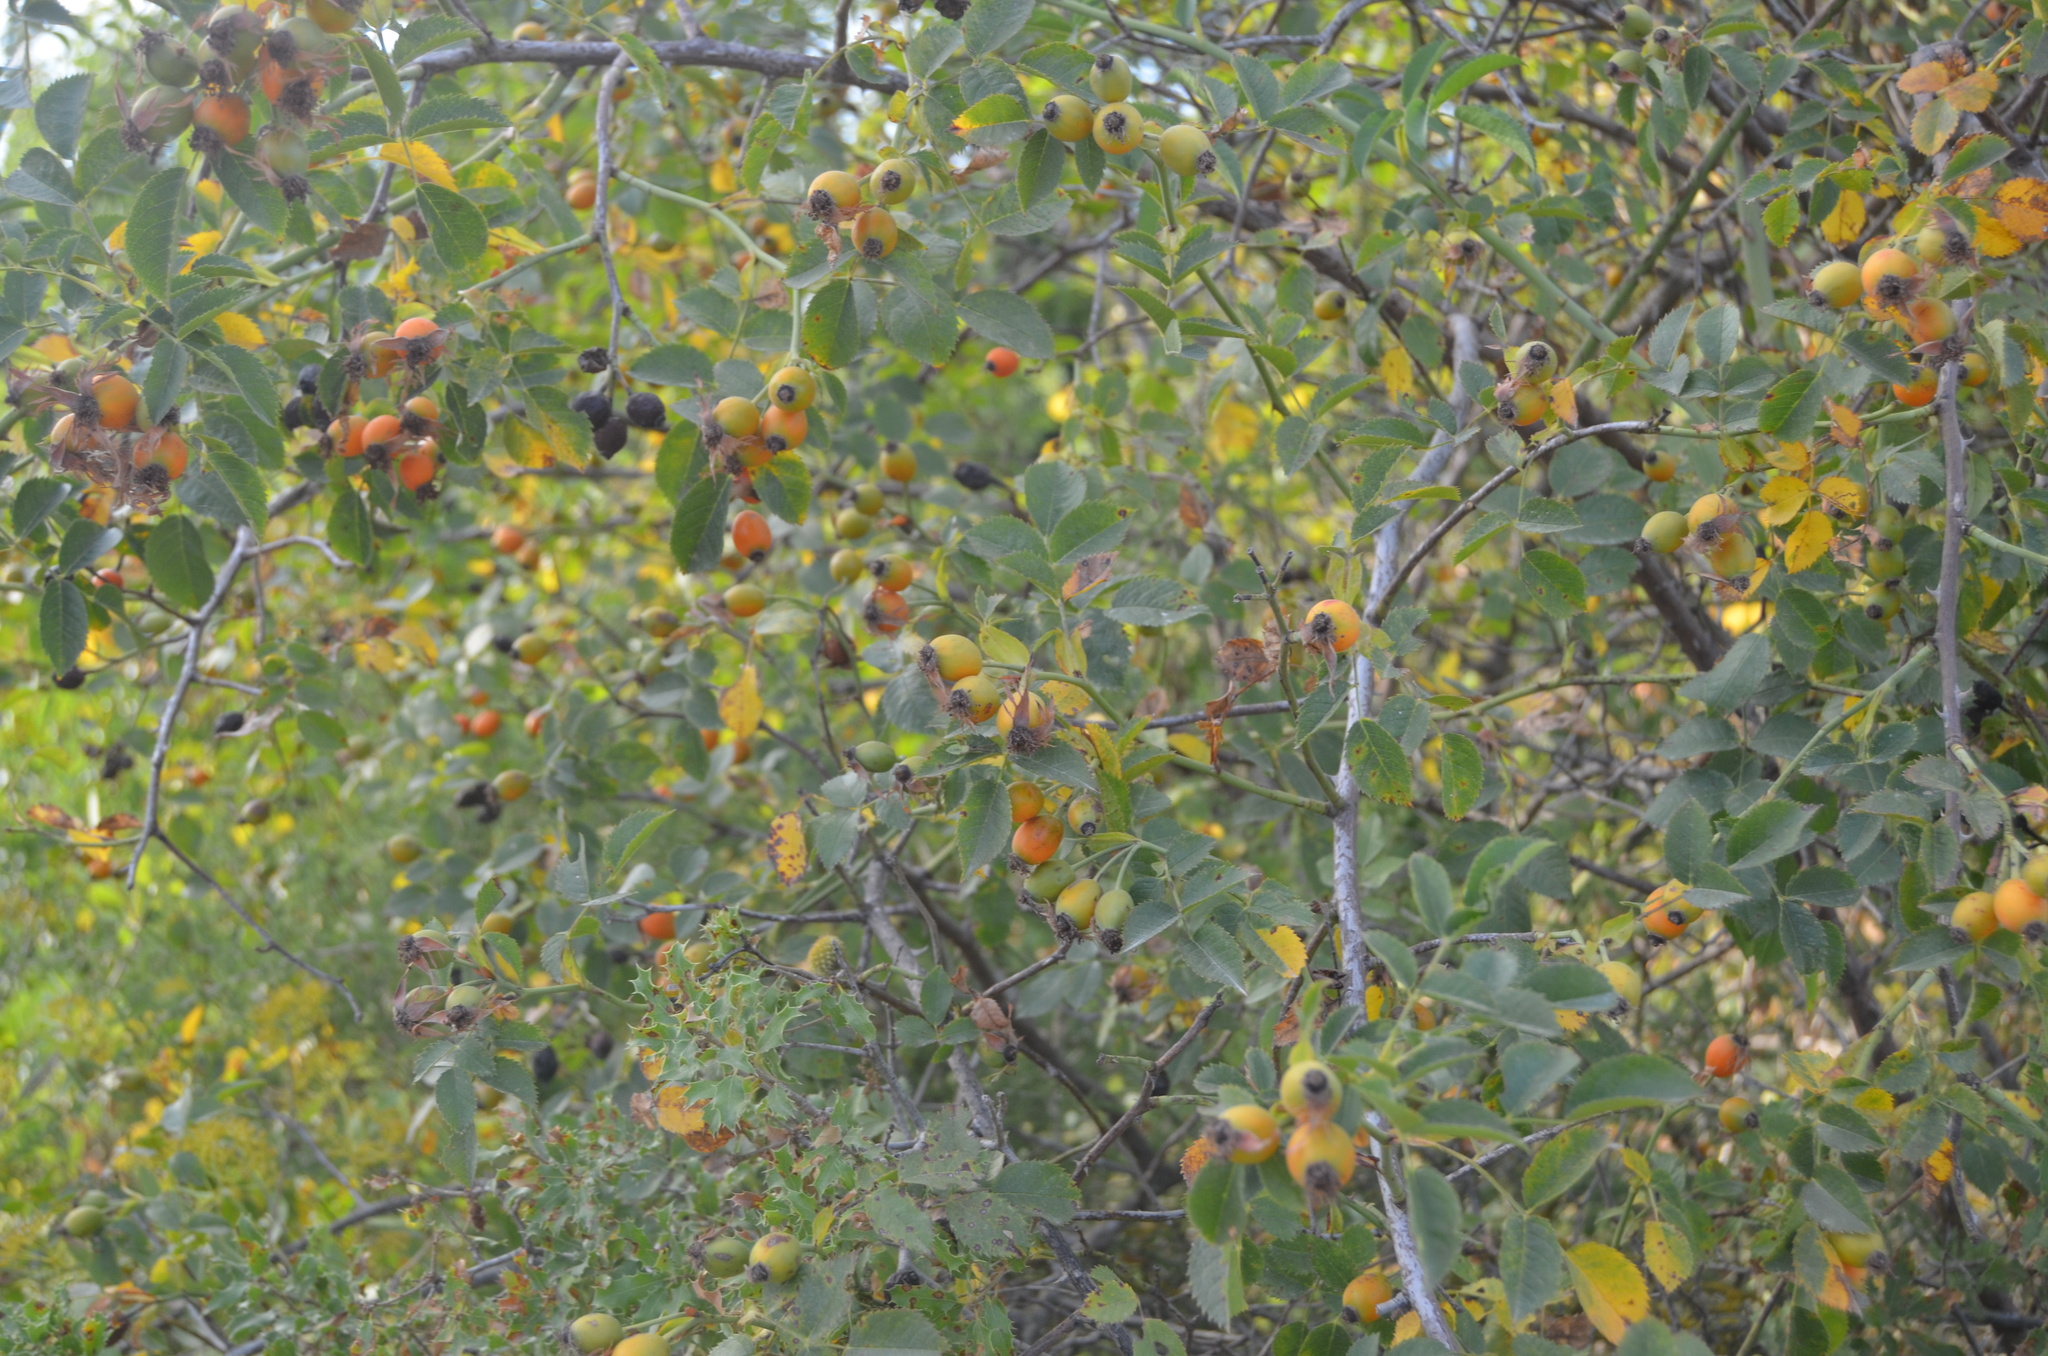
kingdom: Plantae
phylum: Tracheophyta
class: Magnoliopsida
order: Rosales
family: Rosaceae
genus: Rosa
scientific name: Rosa canina
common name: Dog rose
